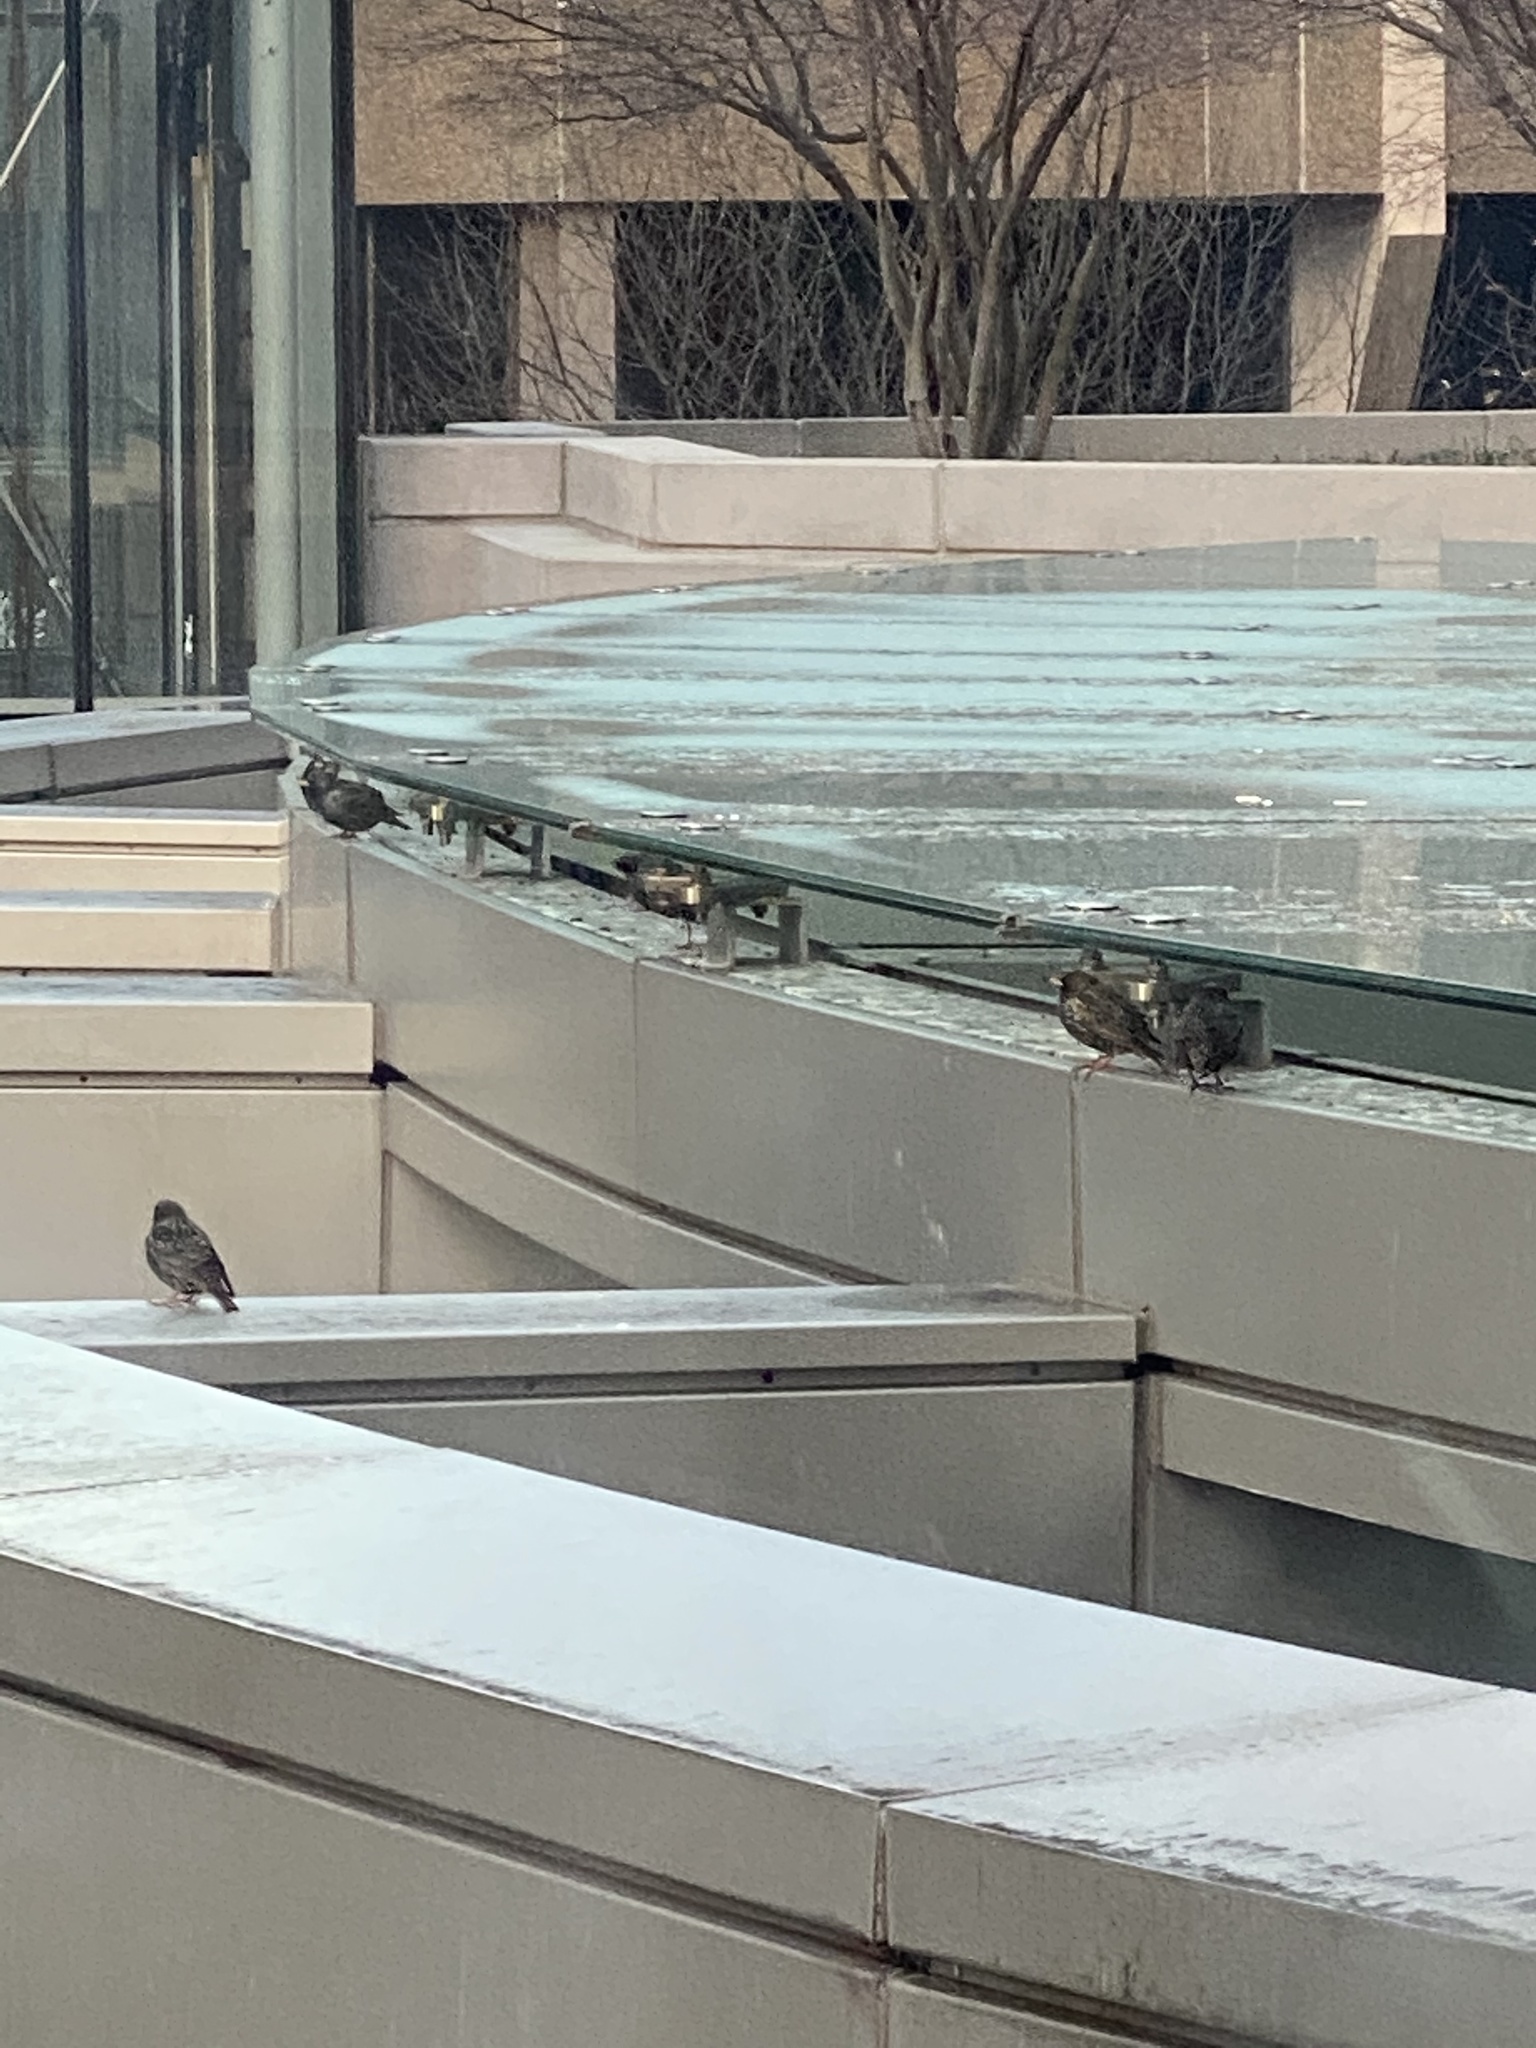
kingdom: Animalia
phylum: Chordata
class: Aves
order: Passeriformes
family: Sturnidae
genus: Sturnus
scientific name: Sturnus vulgaris
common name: Common starling
